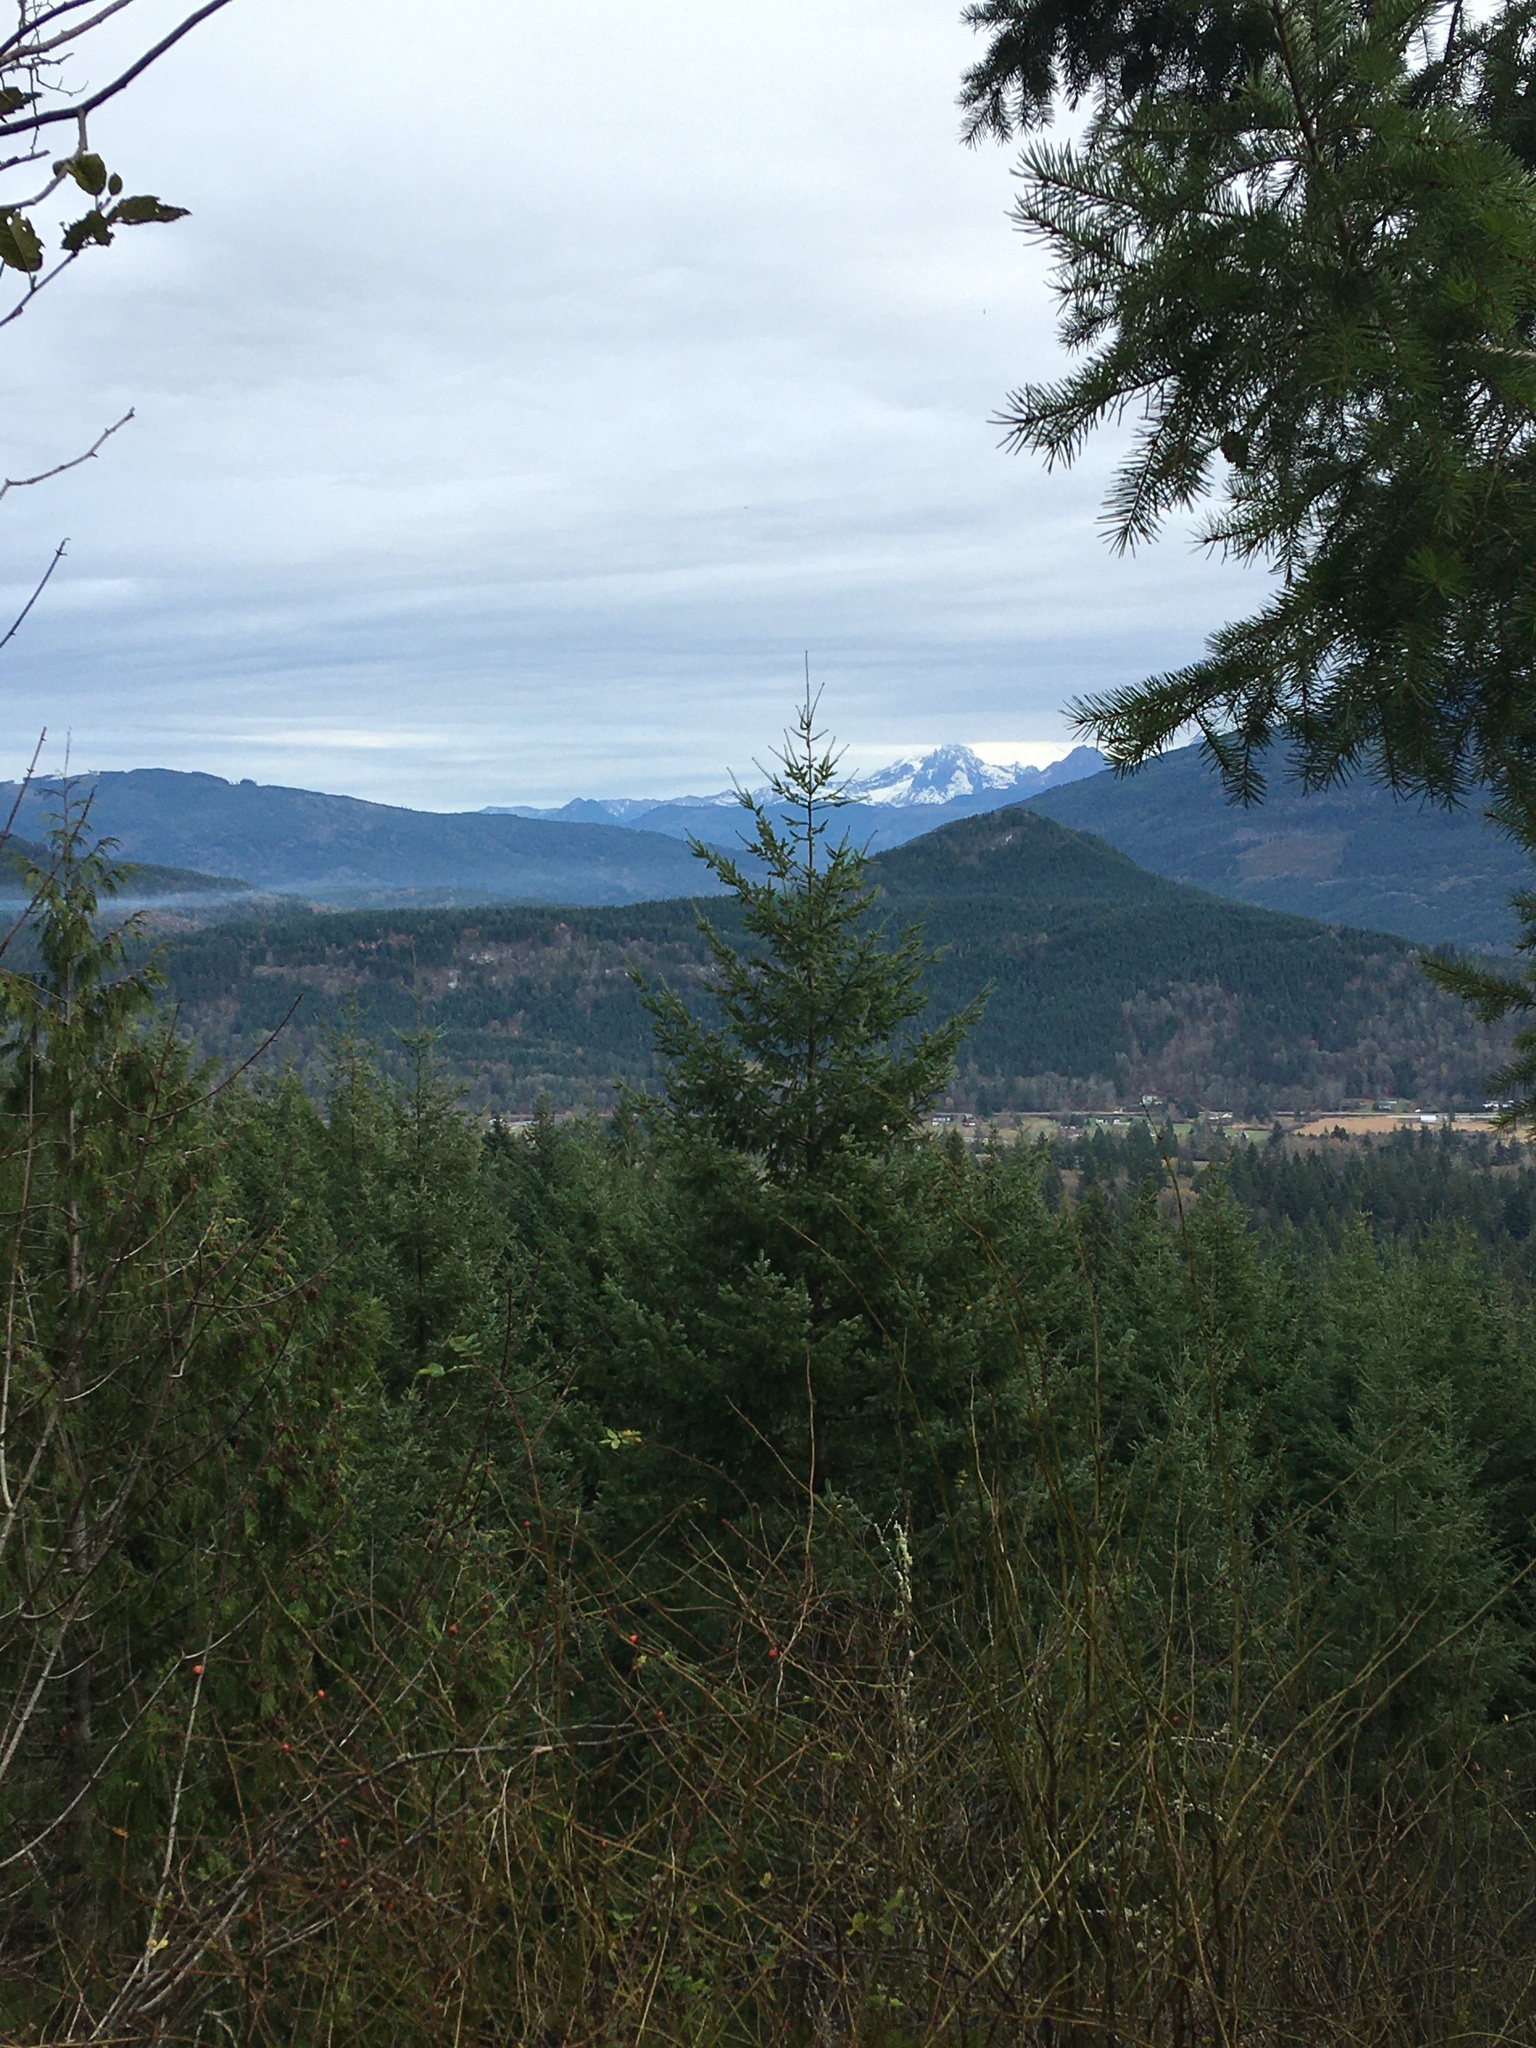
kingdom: Plantae
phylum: Tracheophyta
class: Pinopsida
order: Pinales
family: Pinaceae
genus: Pseudotsuga
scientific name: Pseudotsuga menziesii
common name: Douglas fir
